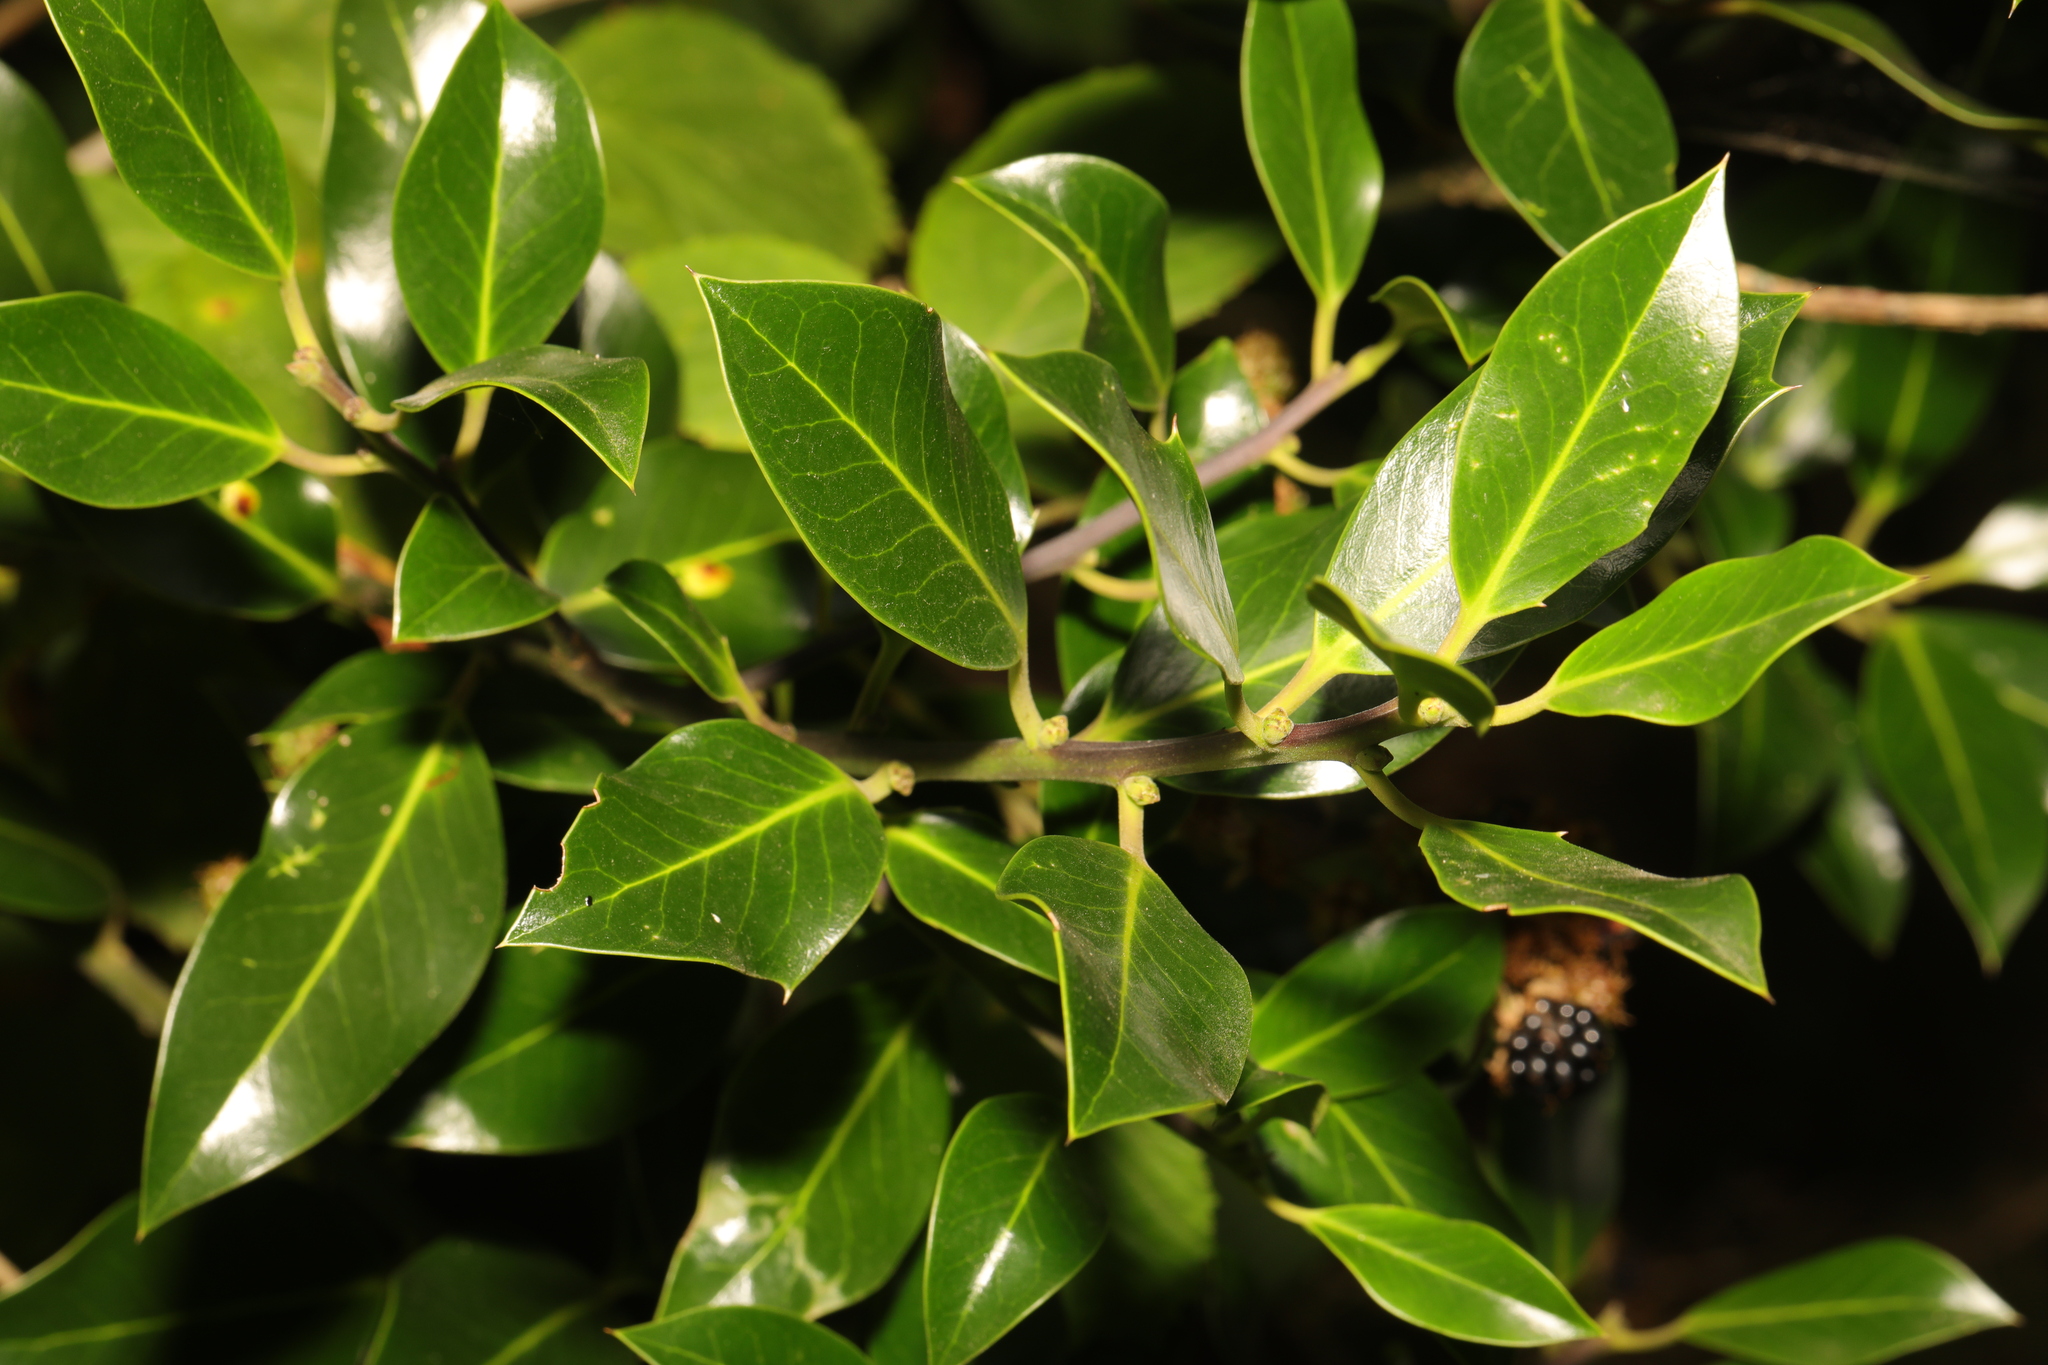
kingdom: Plantae
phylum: Tracheophyta
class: Magnoliopsida
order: Aquifoliales
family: Aquifoliaceae
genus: Ilex
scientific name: Ilex altaclerensis
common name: Highclere holly
